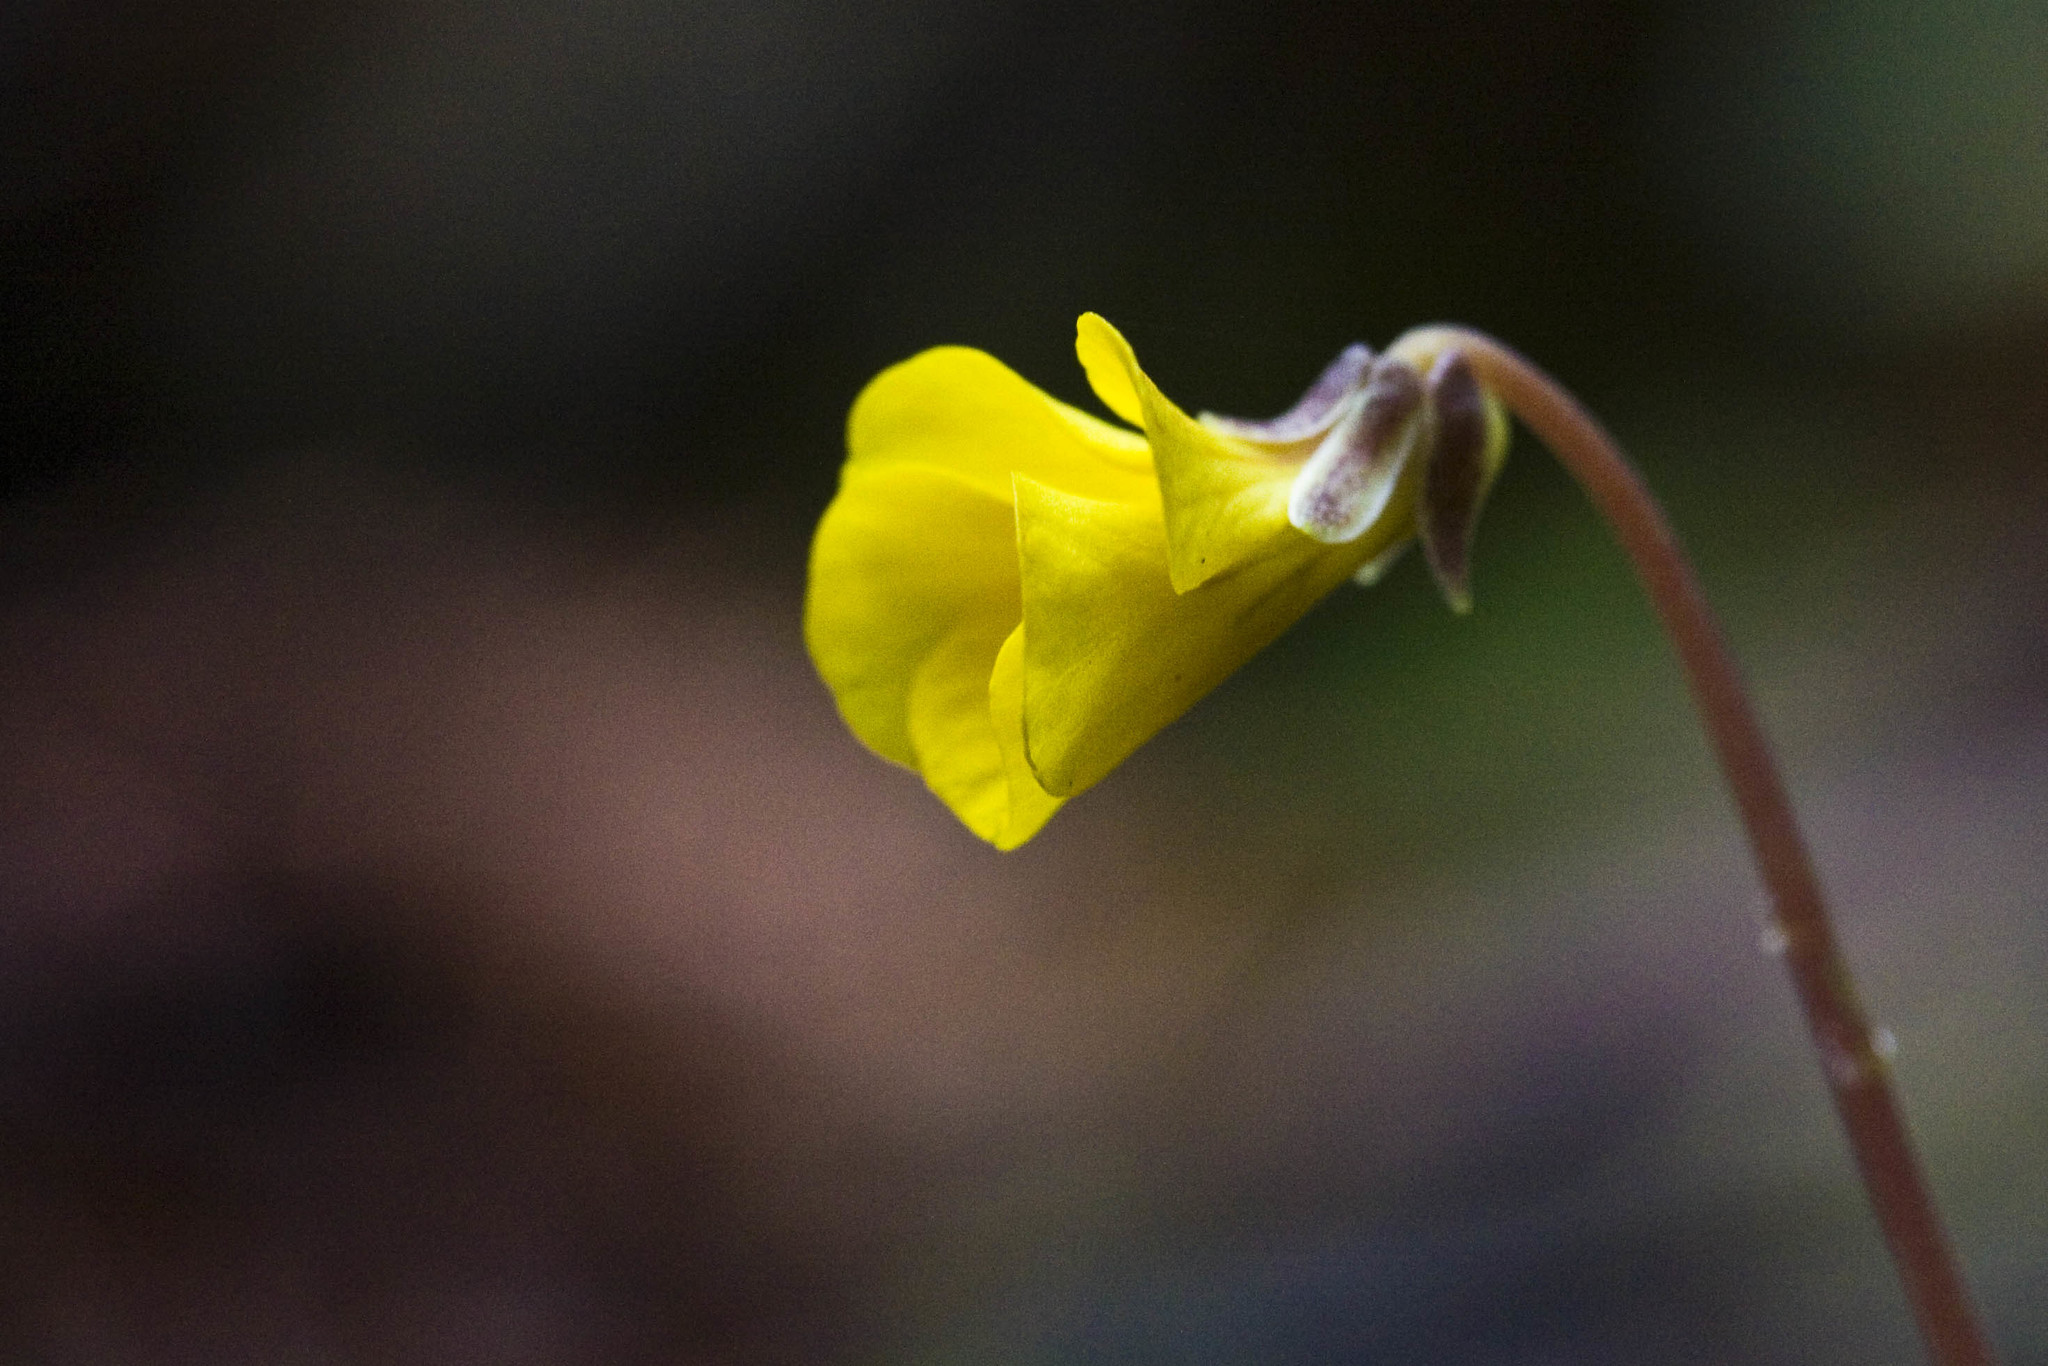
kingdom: Plantae
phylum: Tracheophyta
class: Magnoliopsida
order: Malpighiales
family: Violaceae
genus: Viola
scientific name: Viola sempervirens
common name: Evergreen violet
